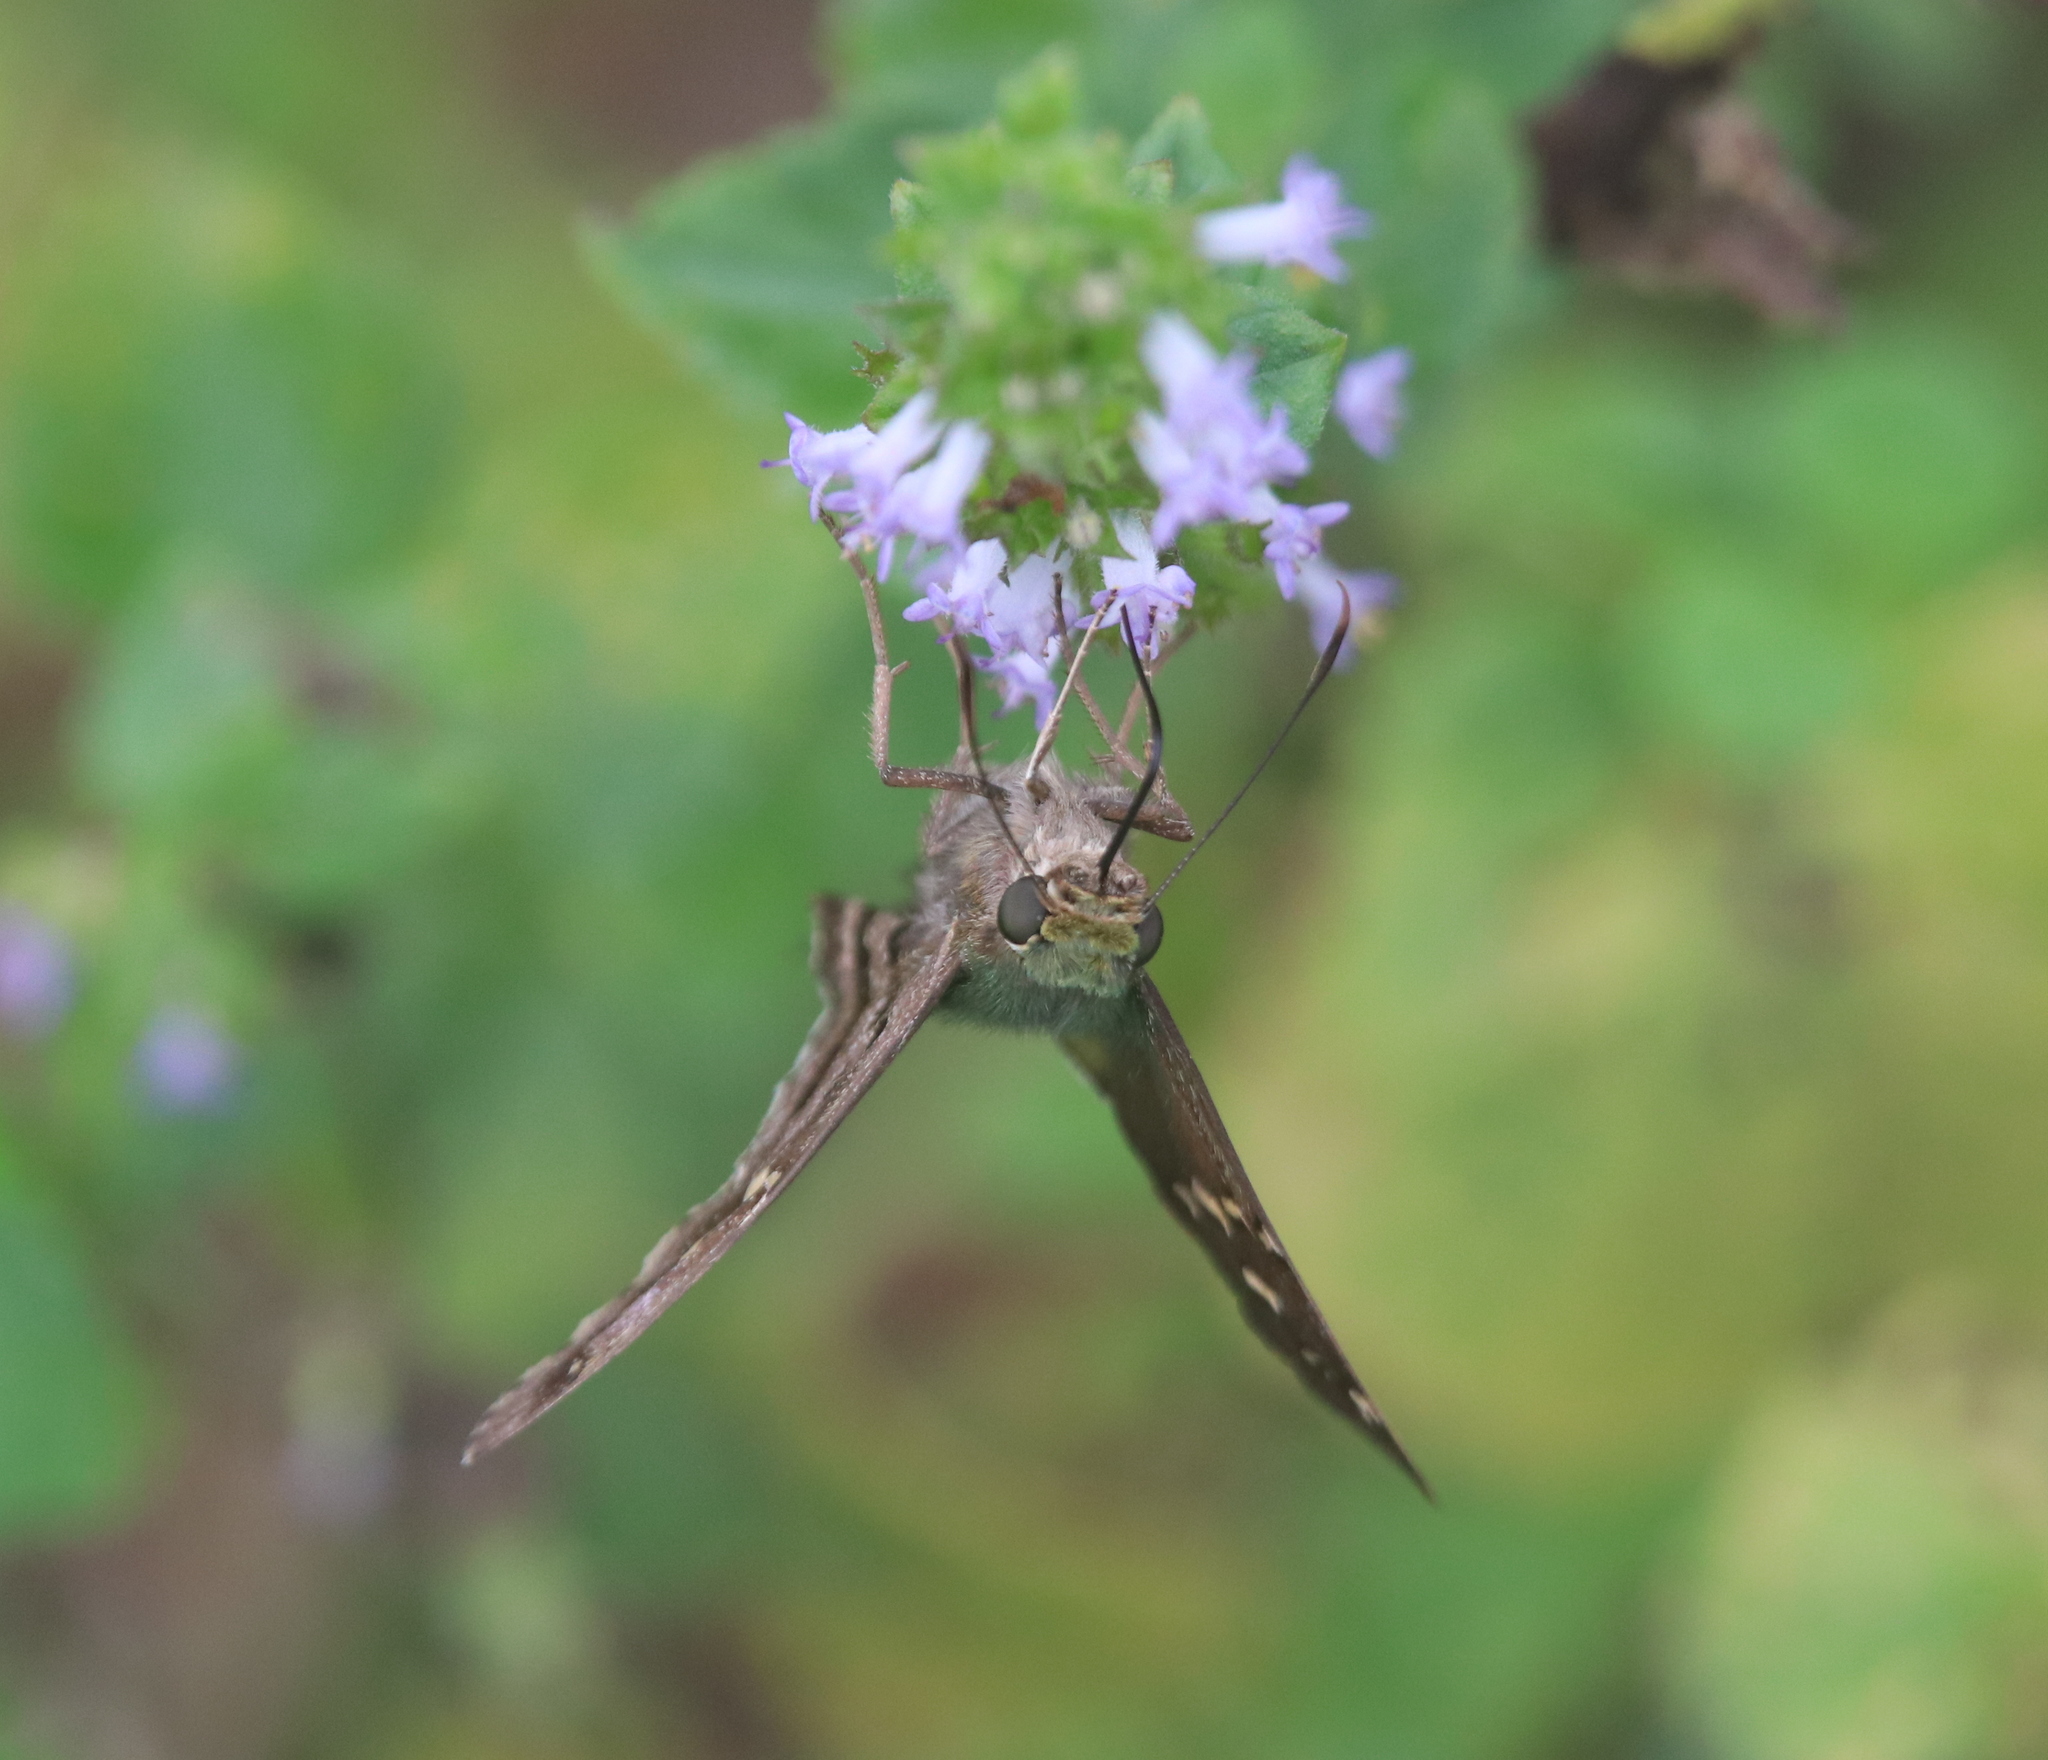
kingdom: Animalia
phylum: Arthropoda
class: Insecta
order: Lepidoptera
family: Hesperiidae
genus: Urbanus
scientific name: Urbanus proteus
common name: Long-tailed skipper
